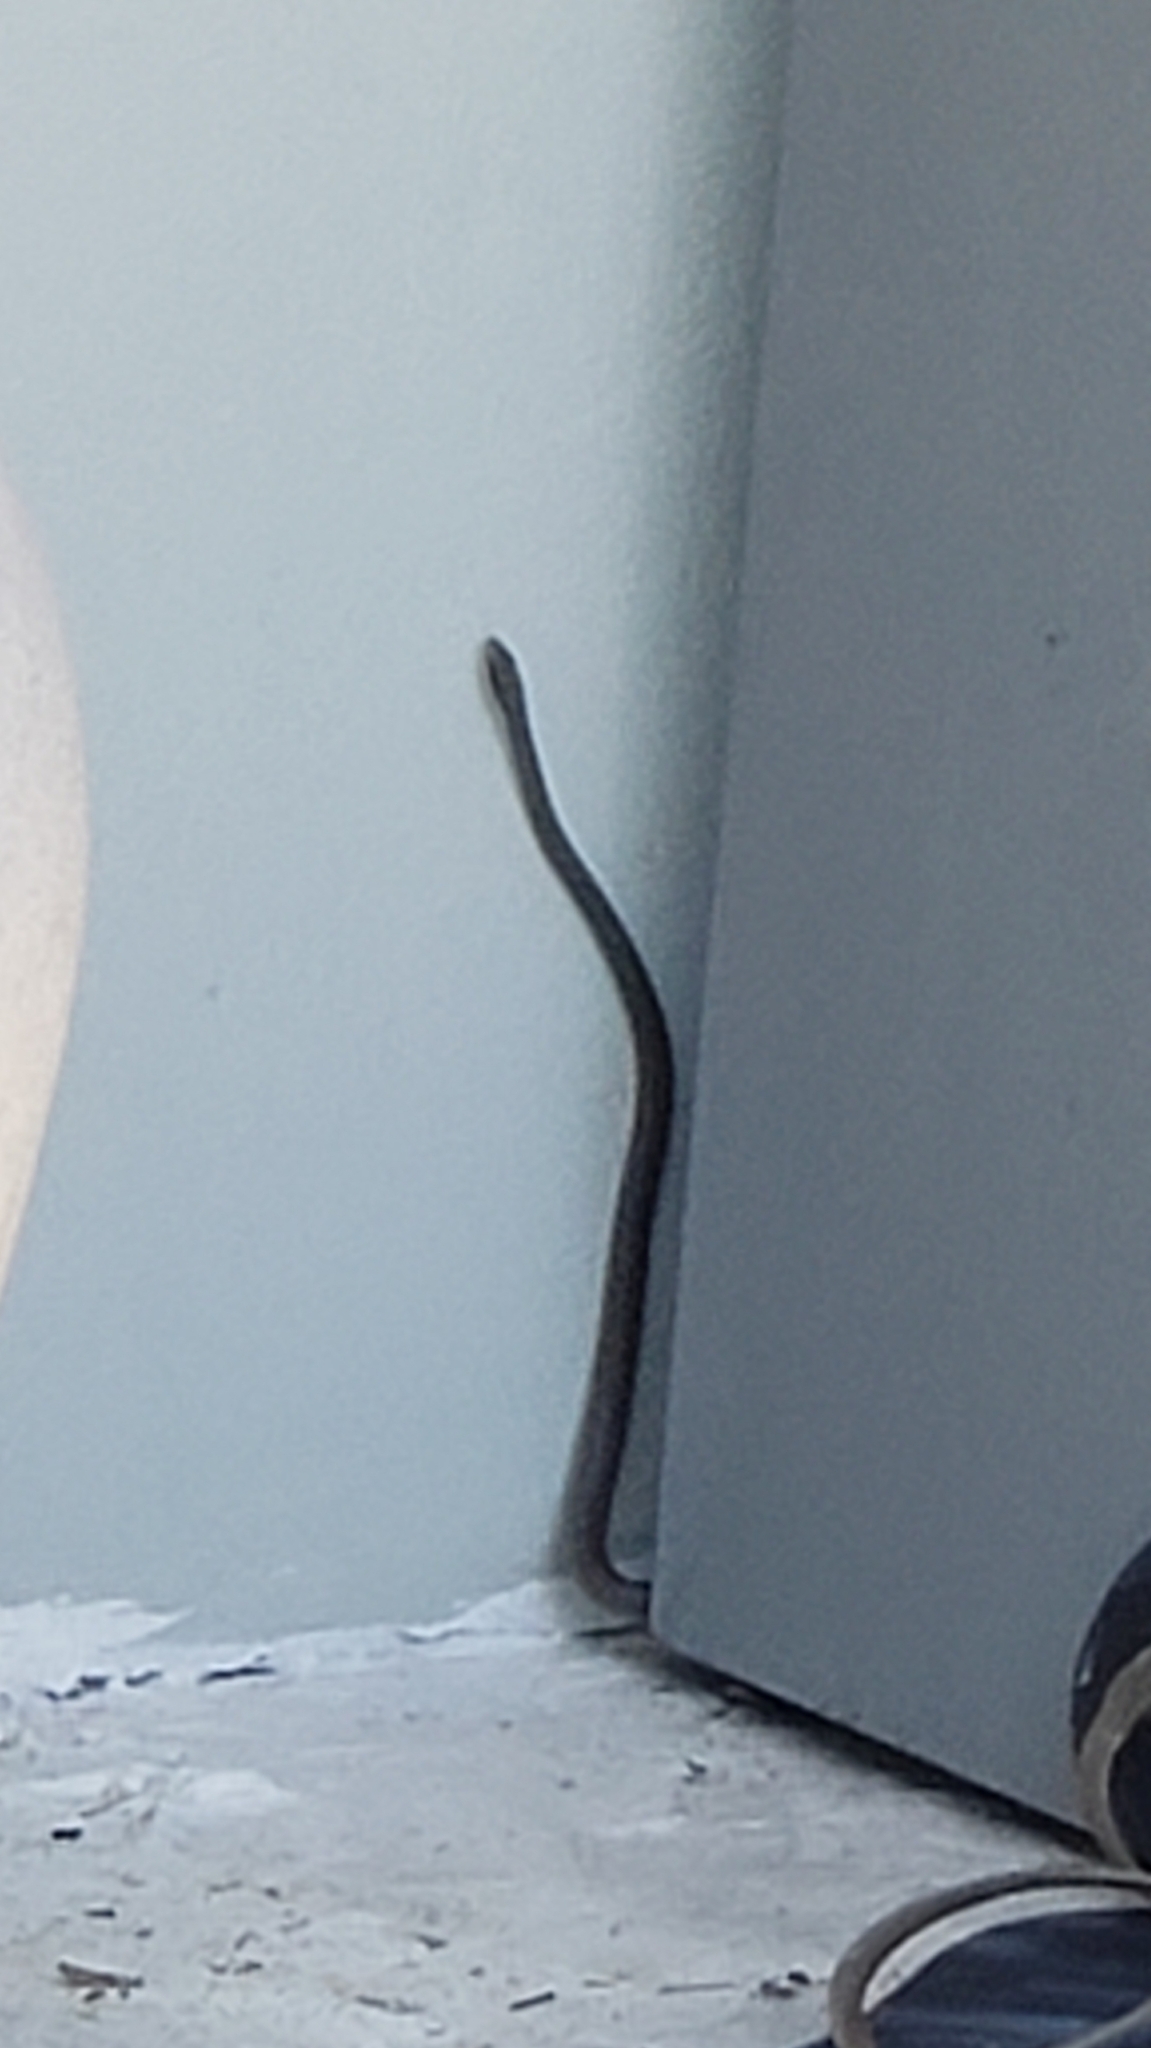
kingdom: Animalia
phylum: Chordata
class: Squamata
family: Colubridae
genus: Coluber
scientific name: Coluber constrictor
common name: Eastern racer
